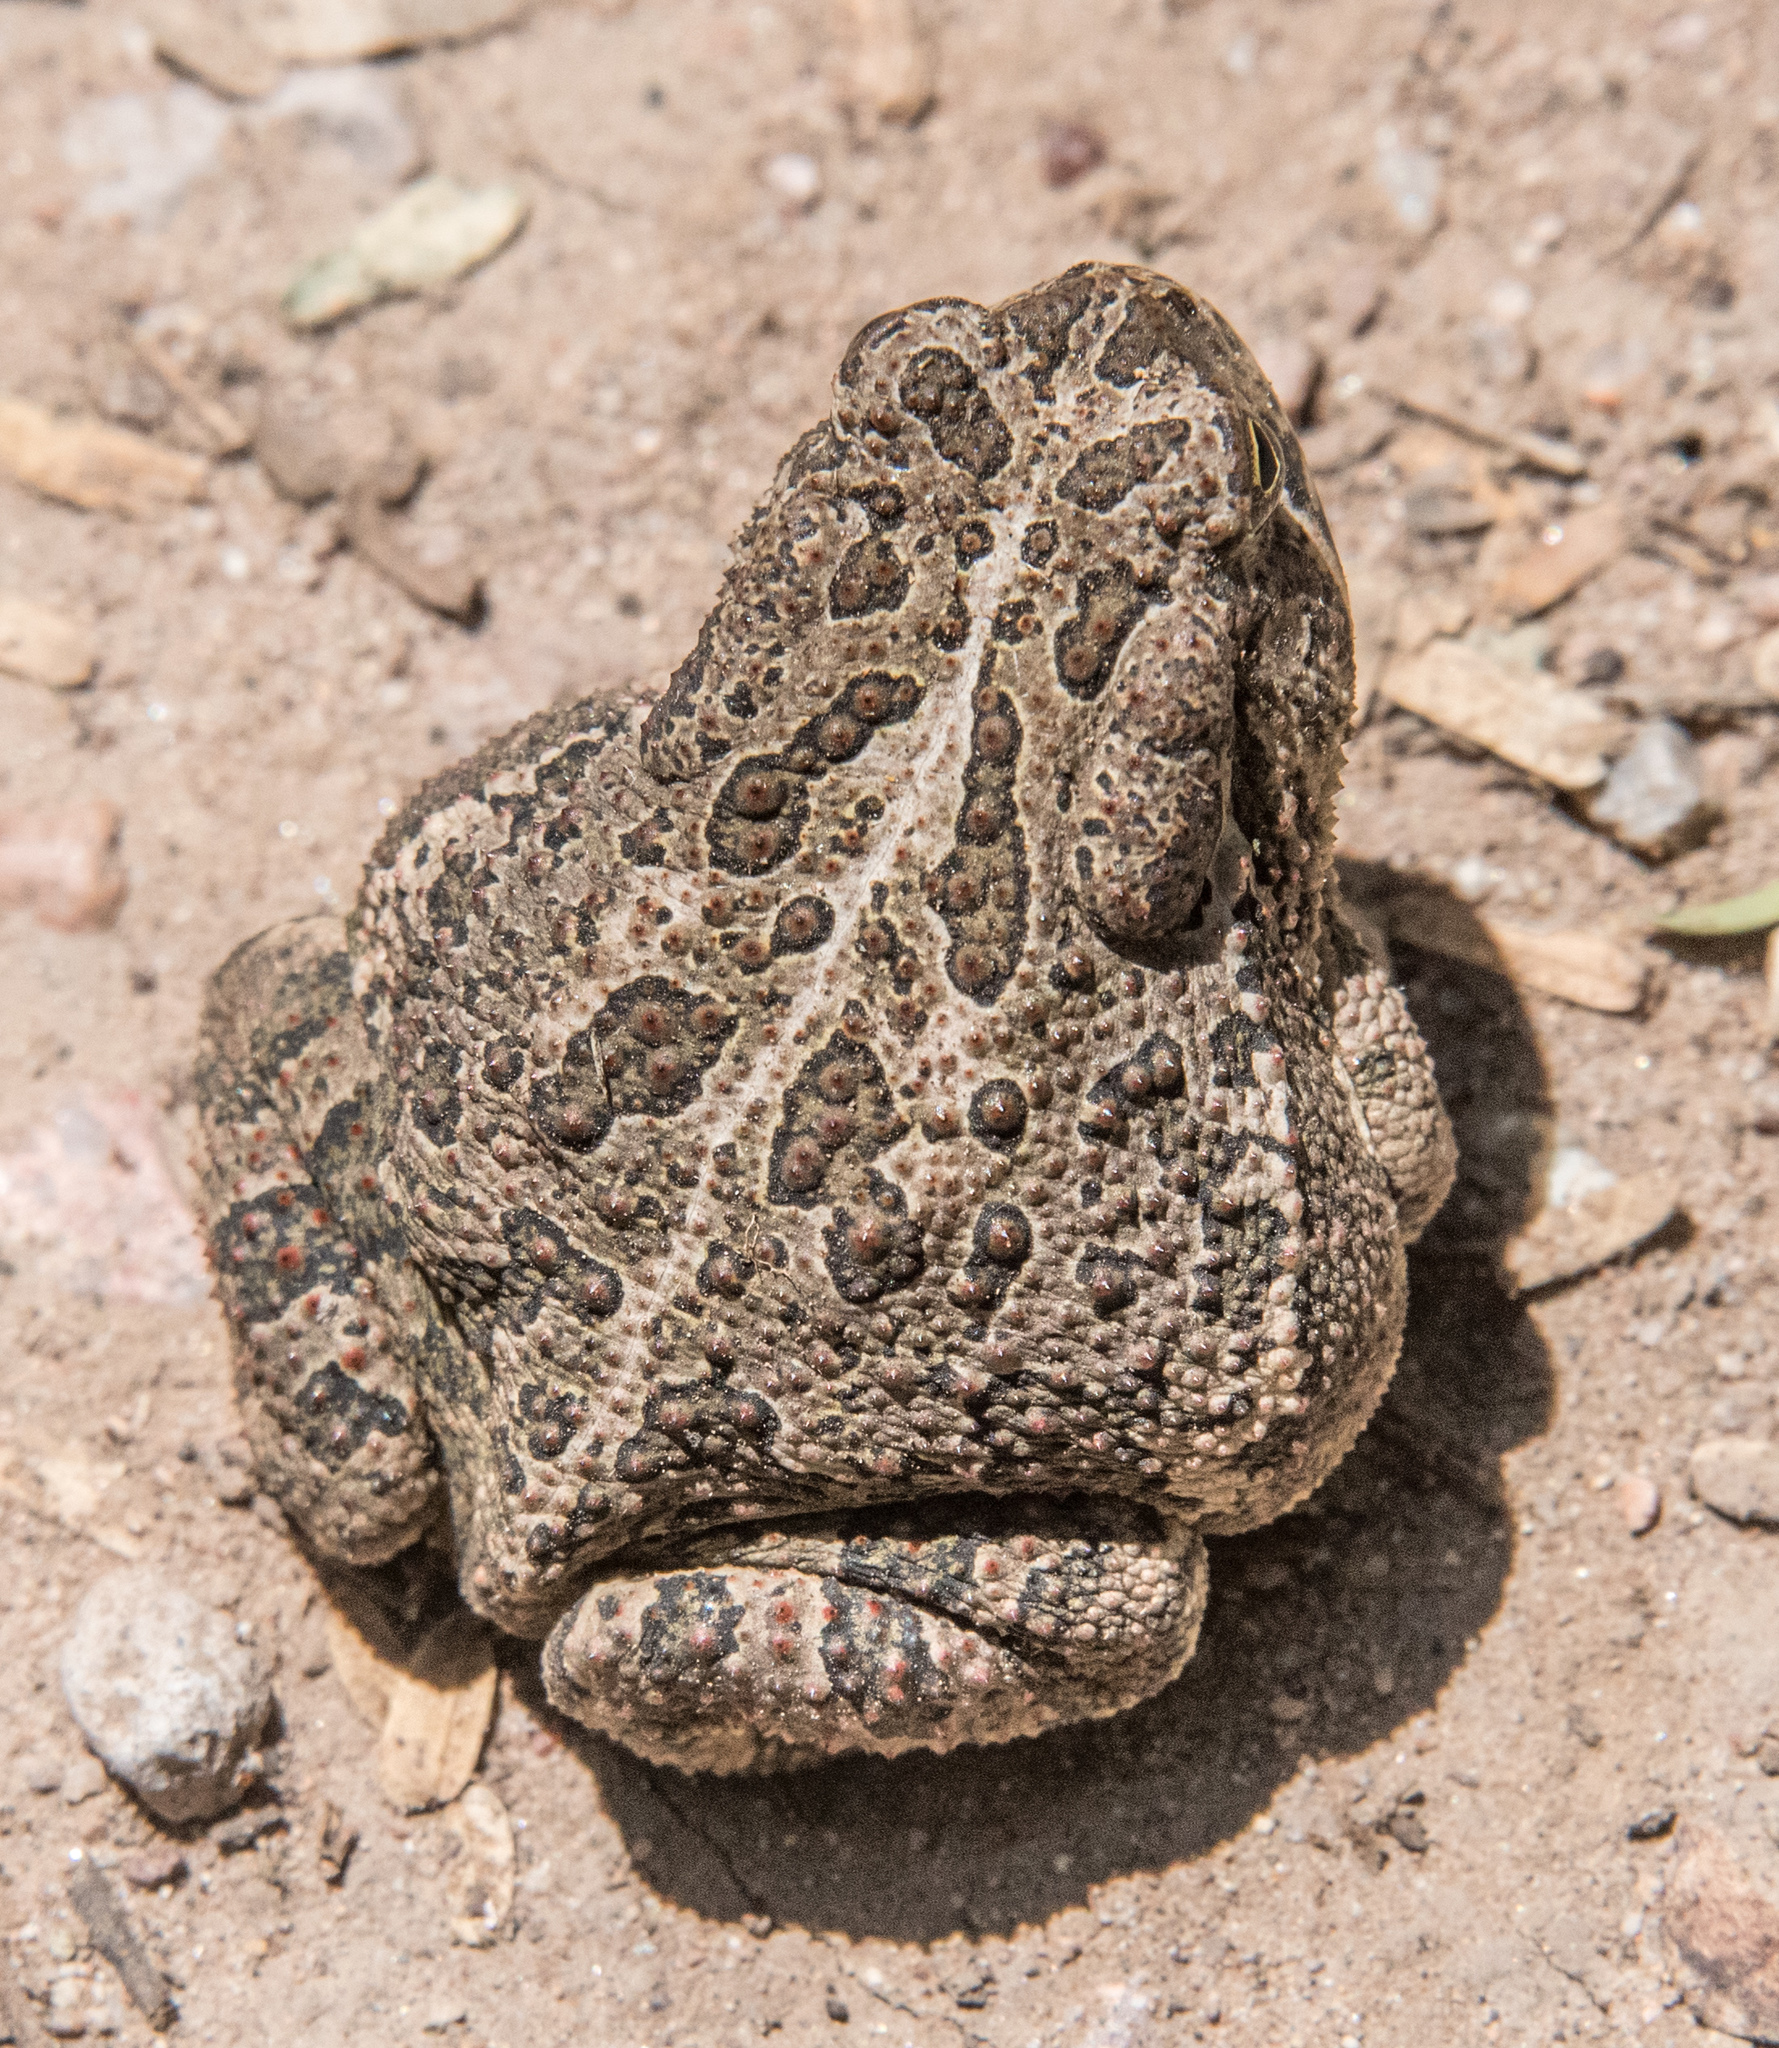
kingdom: Animalia
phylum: Chordata
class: Amphibia
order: Anura
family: Bufonidae
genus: Anaxyrus
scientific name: Anaxyrus woodhousii
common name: Woodhouse's toad
